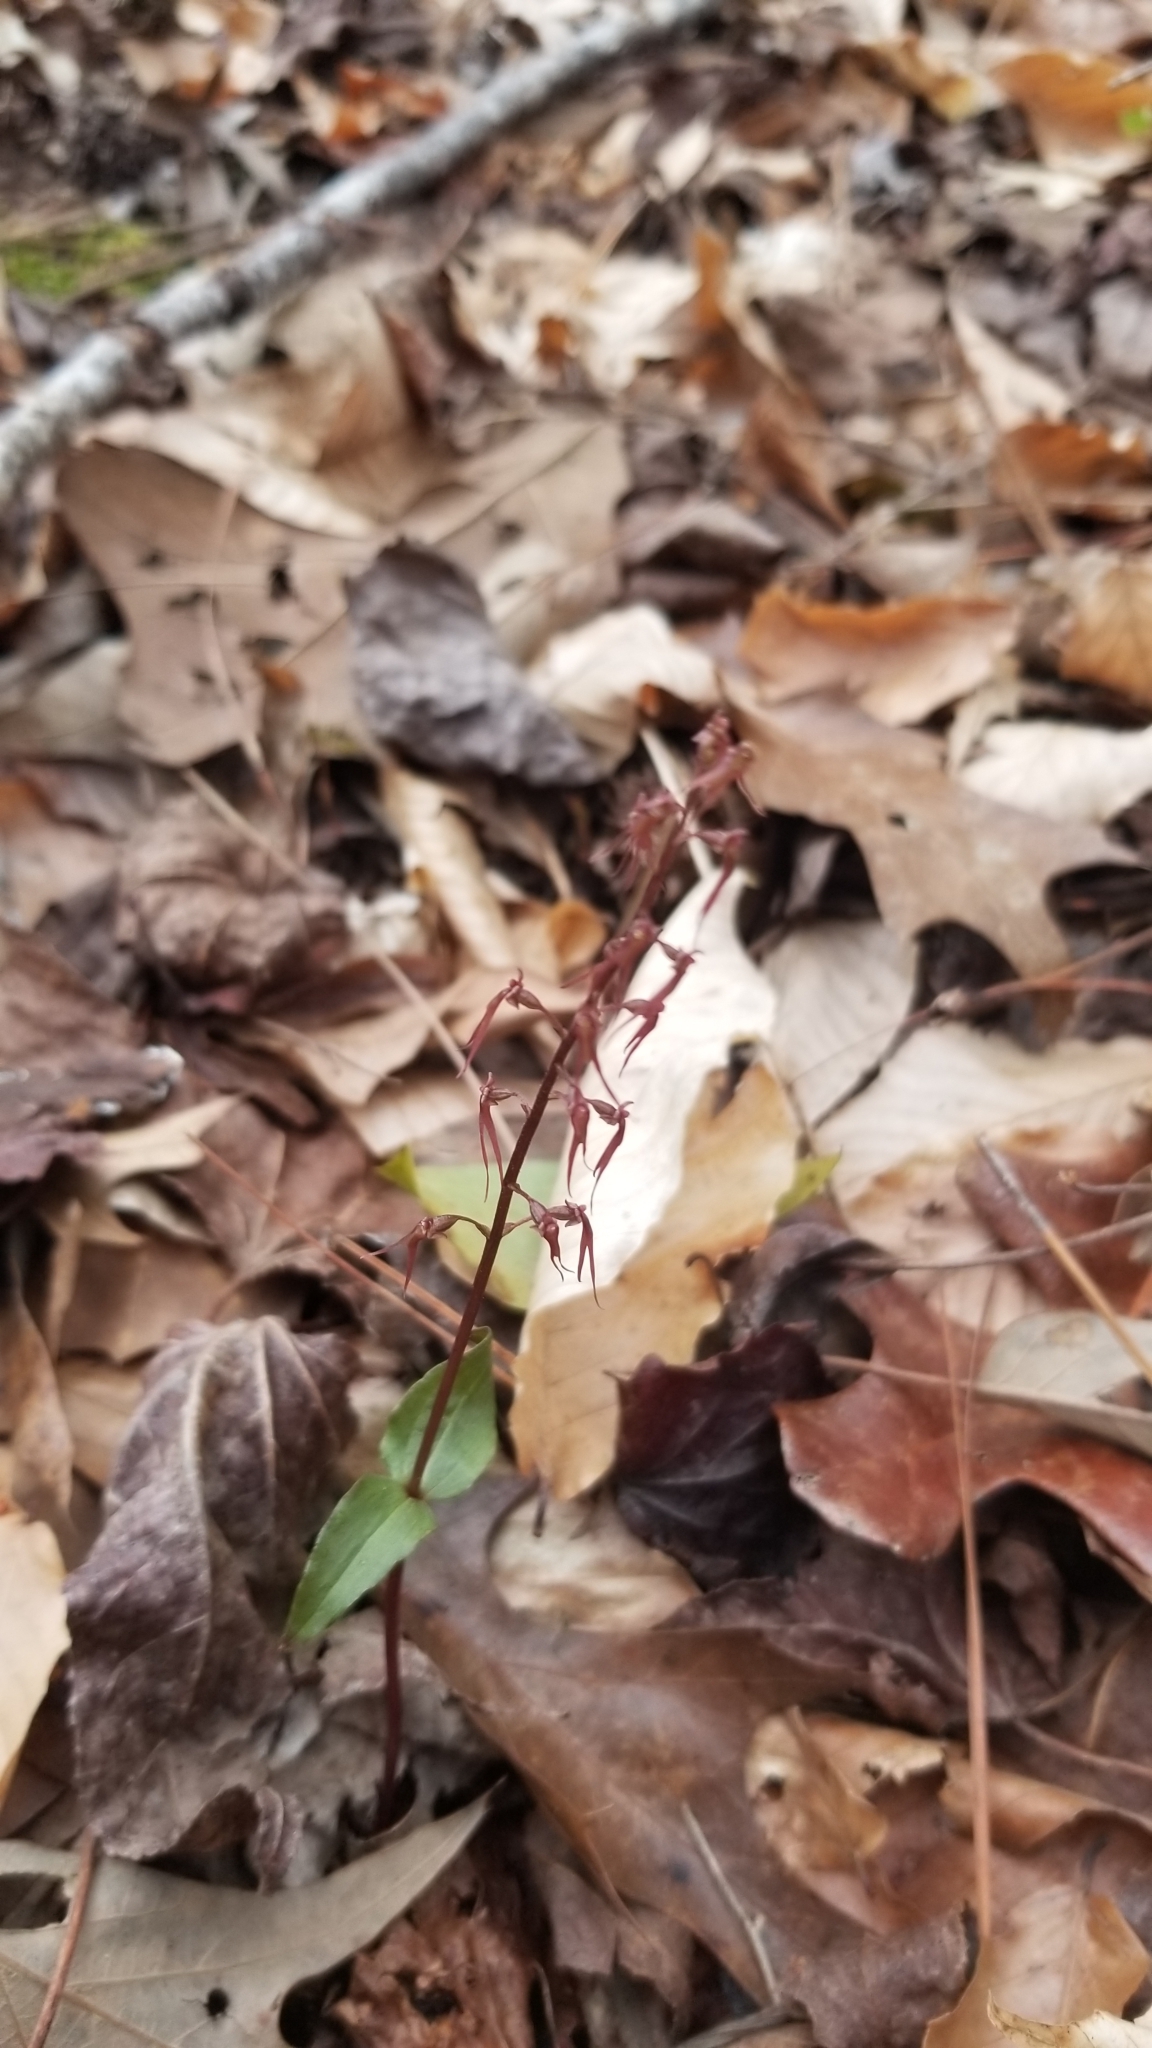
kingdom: Plantae
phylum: Tracheophyta
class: Liliopsida
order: Asparagales
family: Orchidaceae
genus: Neottia
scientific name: Neottia bifolia
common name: Southern twayblade
